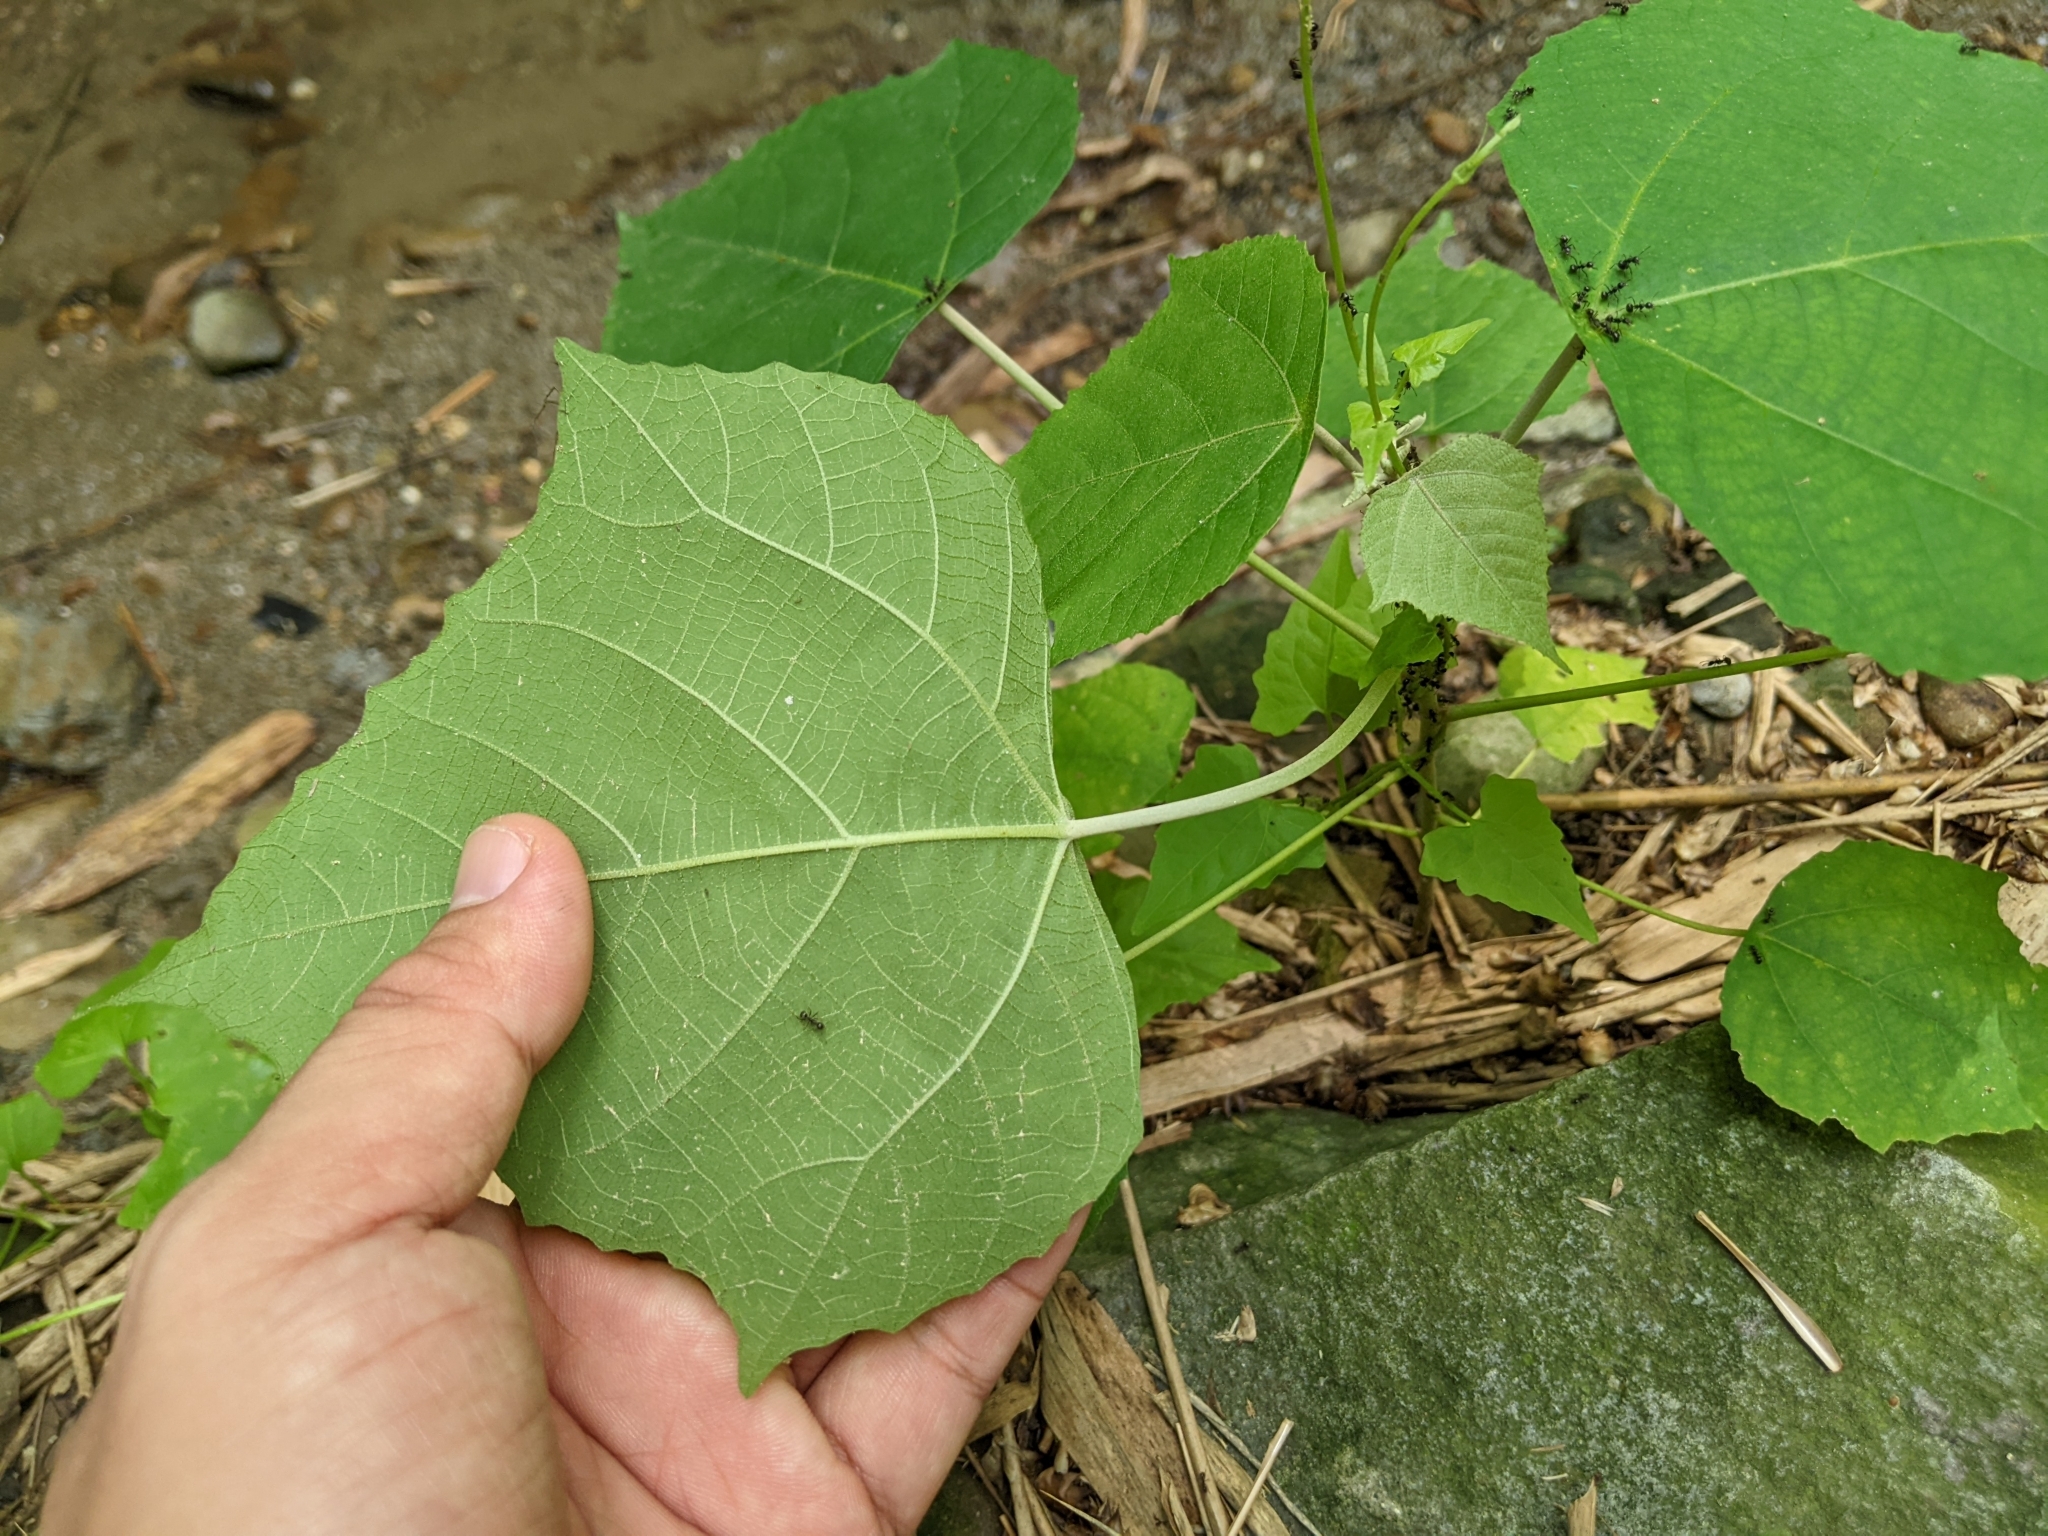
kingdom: Plantae
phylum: Tracheophyta
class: Magnoliopsida
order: Malpighiales
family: Euphorbiaceae
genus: Mallotus
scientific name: Mallotus paniculatus
